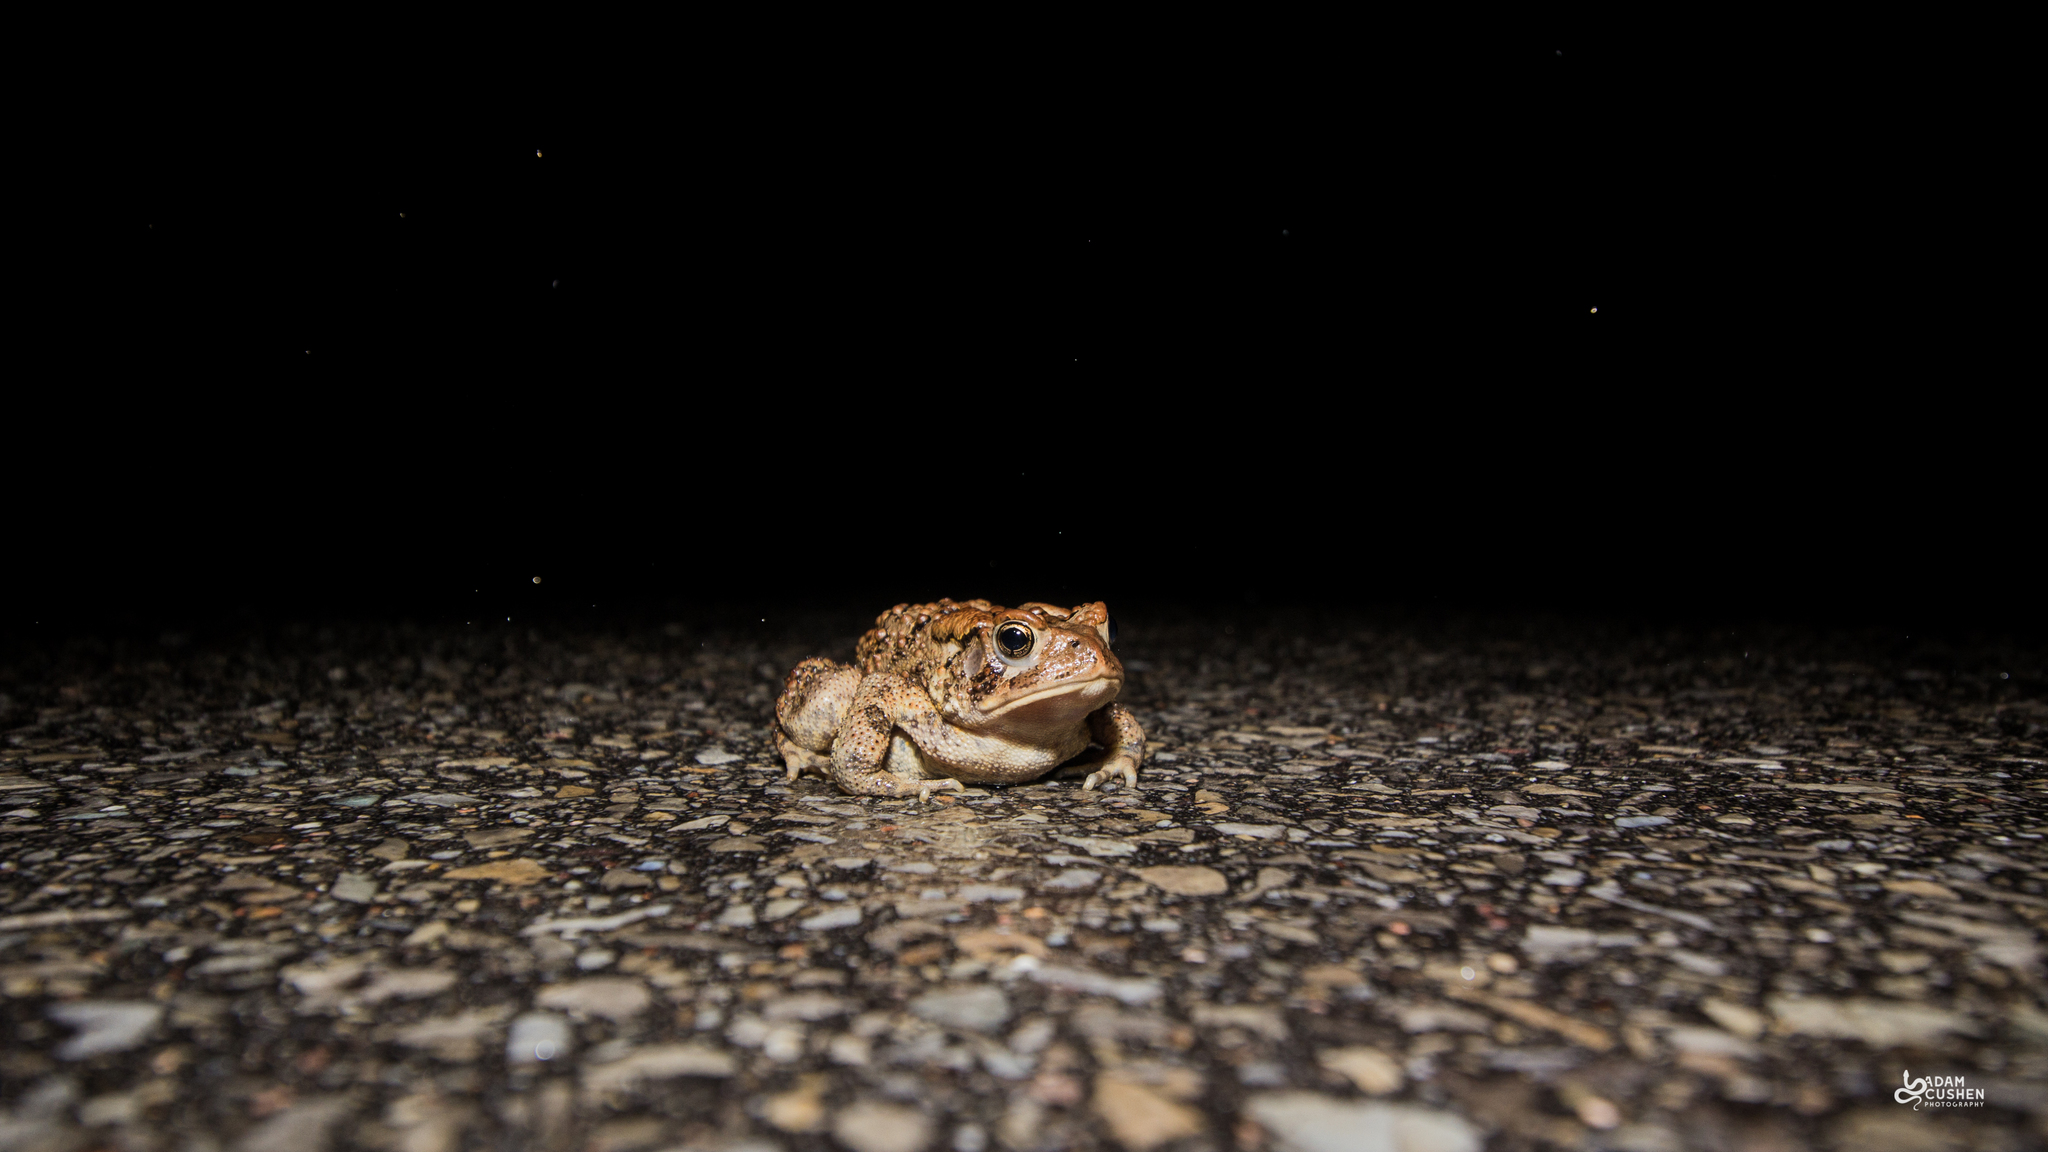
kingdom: Animalia
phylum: Chordata
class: Amphibia
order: Anura
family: Bufonidae
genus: Anaxyrus
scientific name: Anaxyrus americanus
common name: American toad
